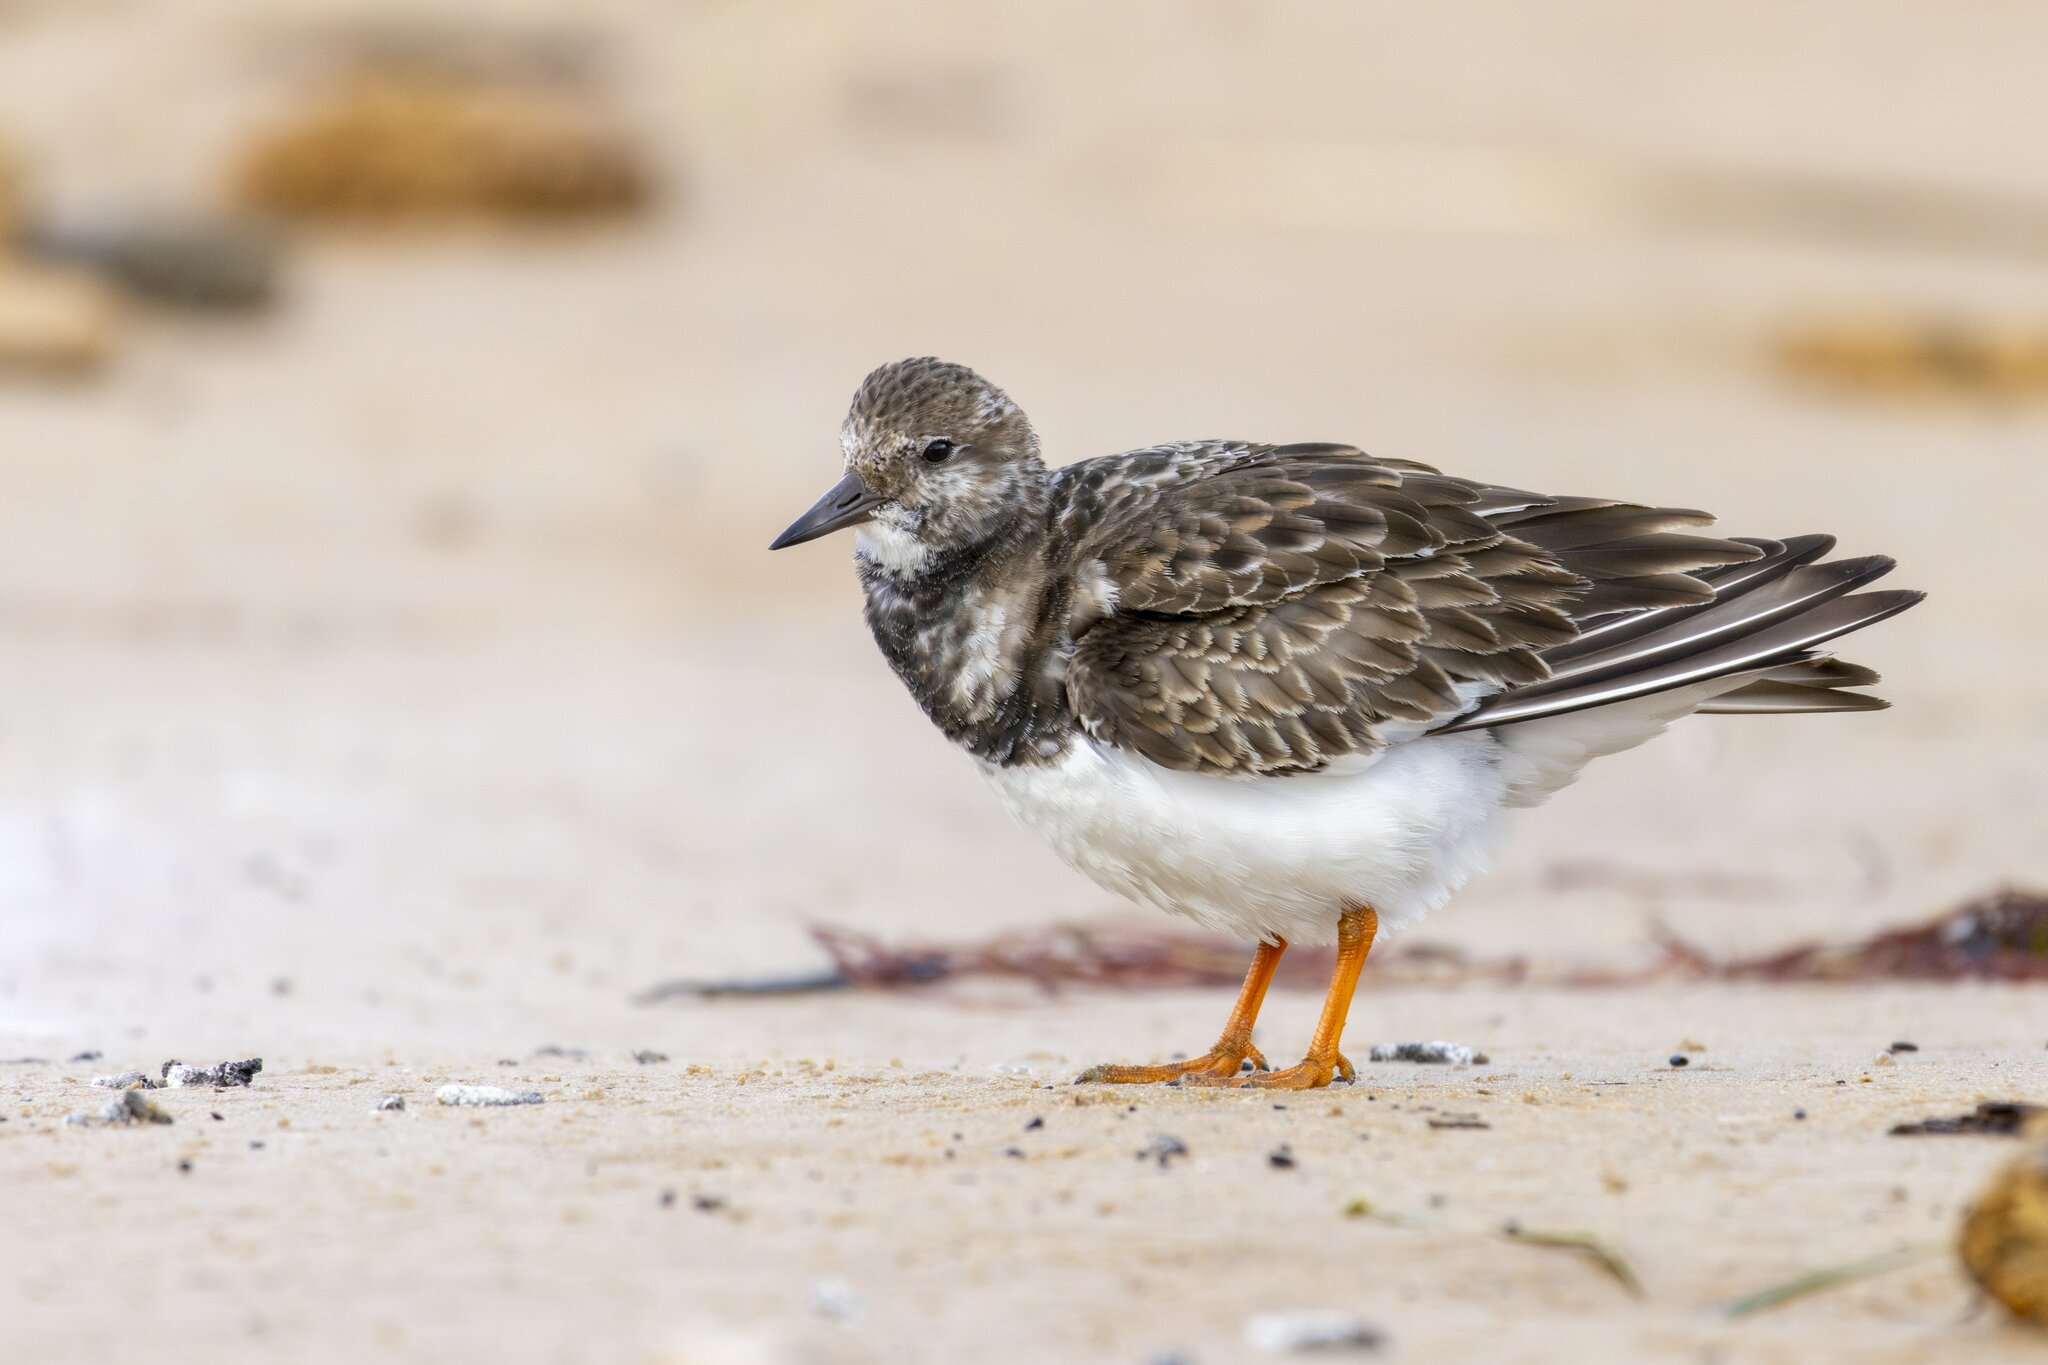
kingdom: Animalia
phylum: Chordata
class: Aves
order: Charadriiformes
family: Scolopacidae
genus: Arenaria
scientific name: Arenaria interpres
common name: Ruddy turnstone
